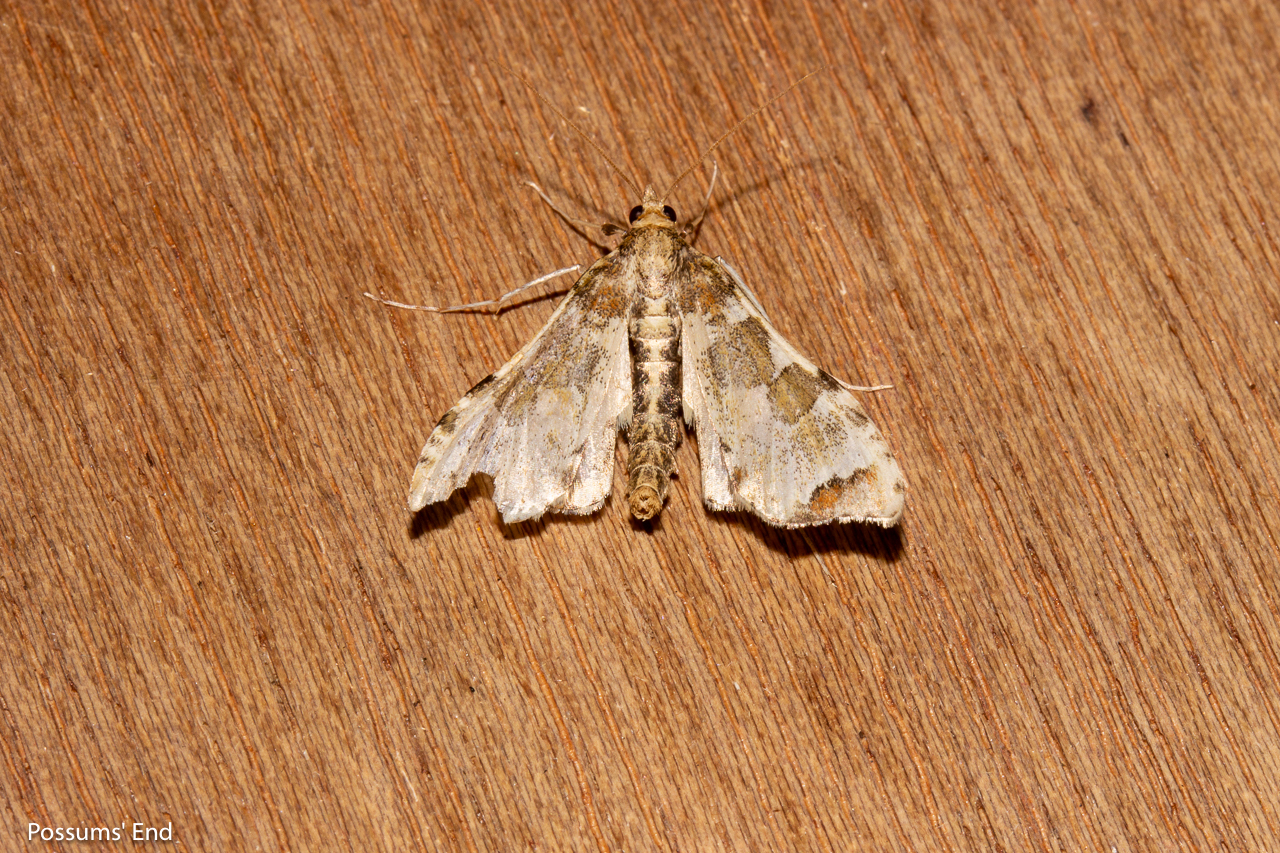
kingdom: Animalia
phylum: Arthropoda
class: Insecta
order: Lepidoptera
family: Crambidae
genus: Sceliodes
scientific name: Sceliodes cordalis
